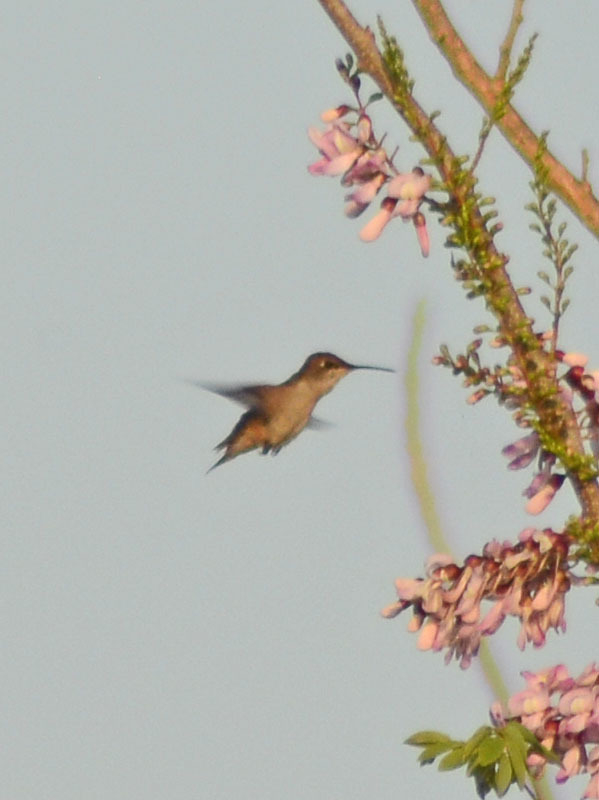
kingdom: Animalia
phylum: Chordata
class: Aves
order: Apodiformes
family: Trochilidae
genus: Archilochus
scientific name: Archilochus colubris
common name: Ruby-throated hummingbird
